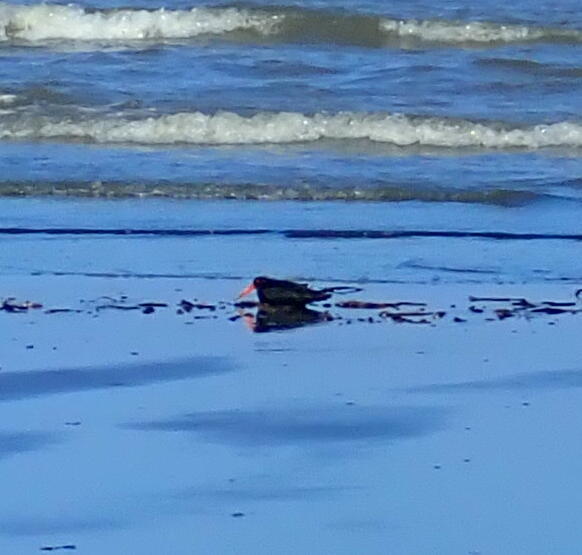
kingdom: Animalia
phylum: Chordata
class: Aves
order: Charadriiformes
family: Haematopodidae
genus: Haematopus
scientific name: Haematopus unicolor
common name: Variable oystercatcher
